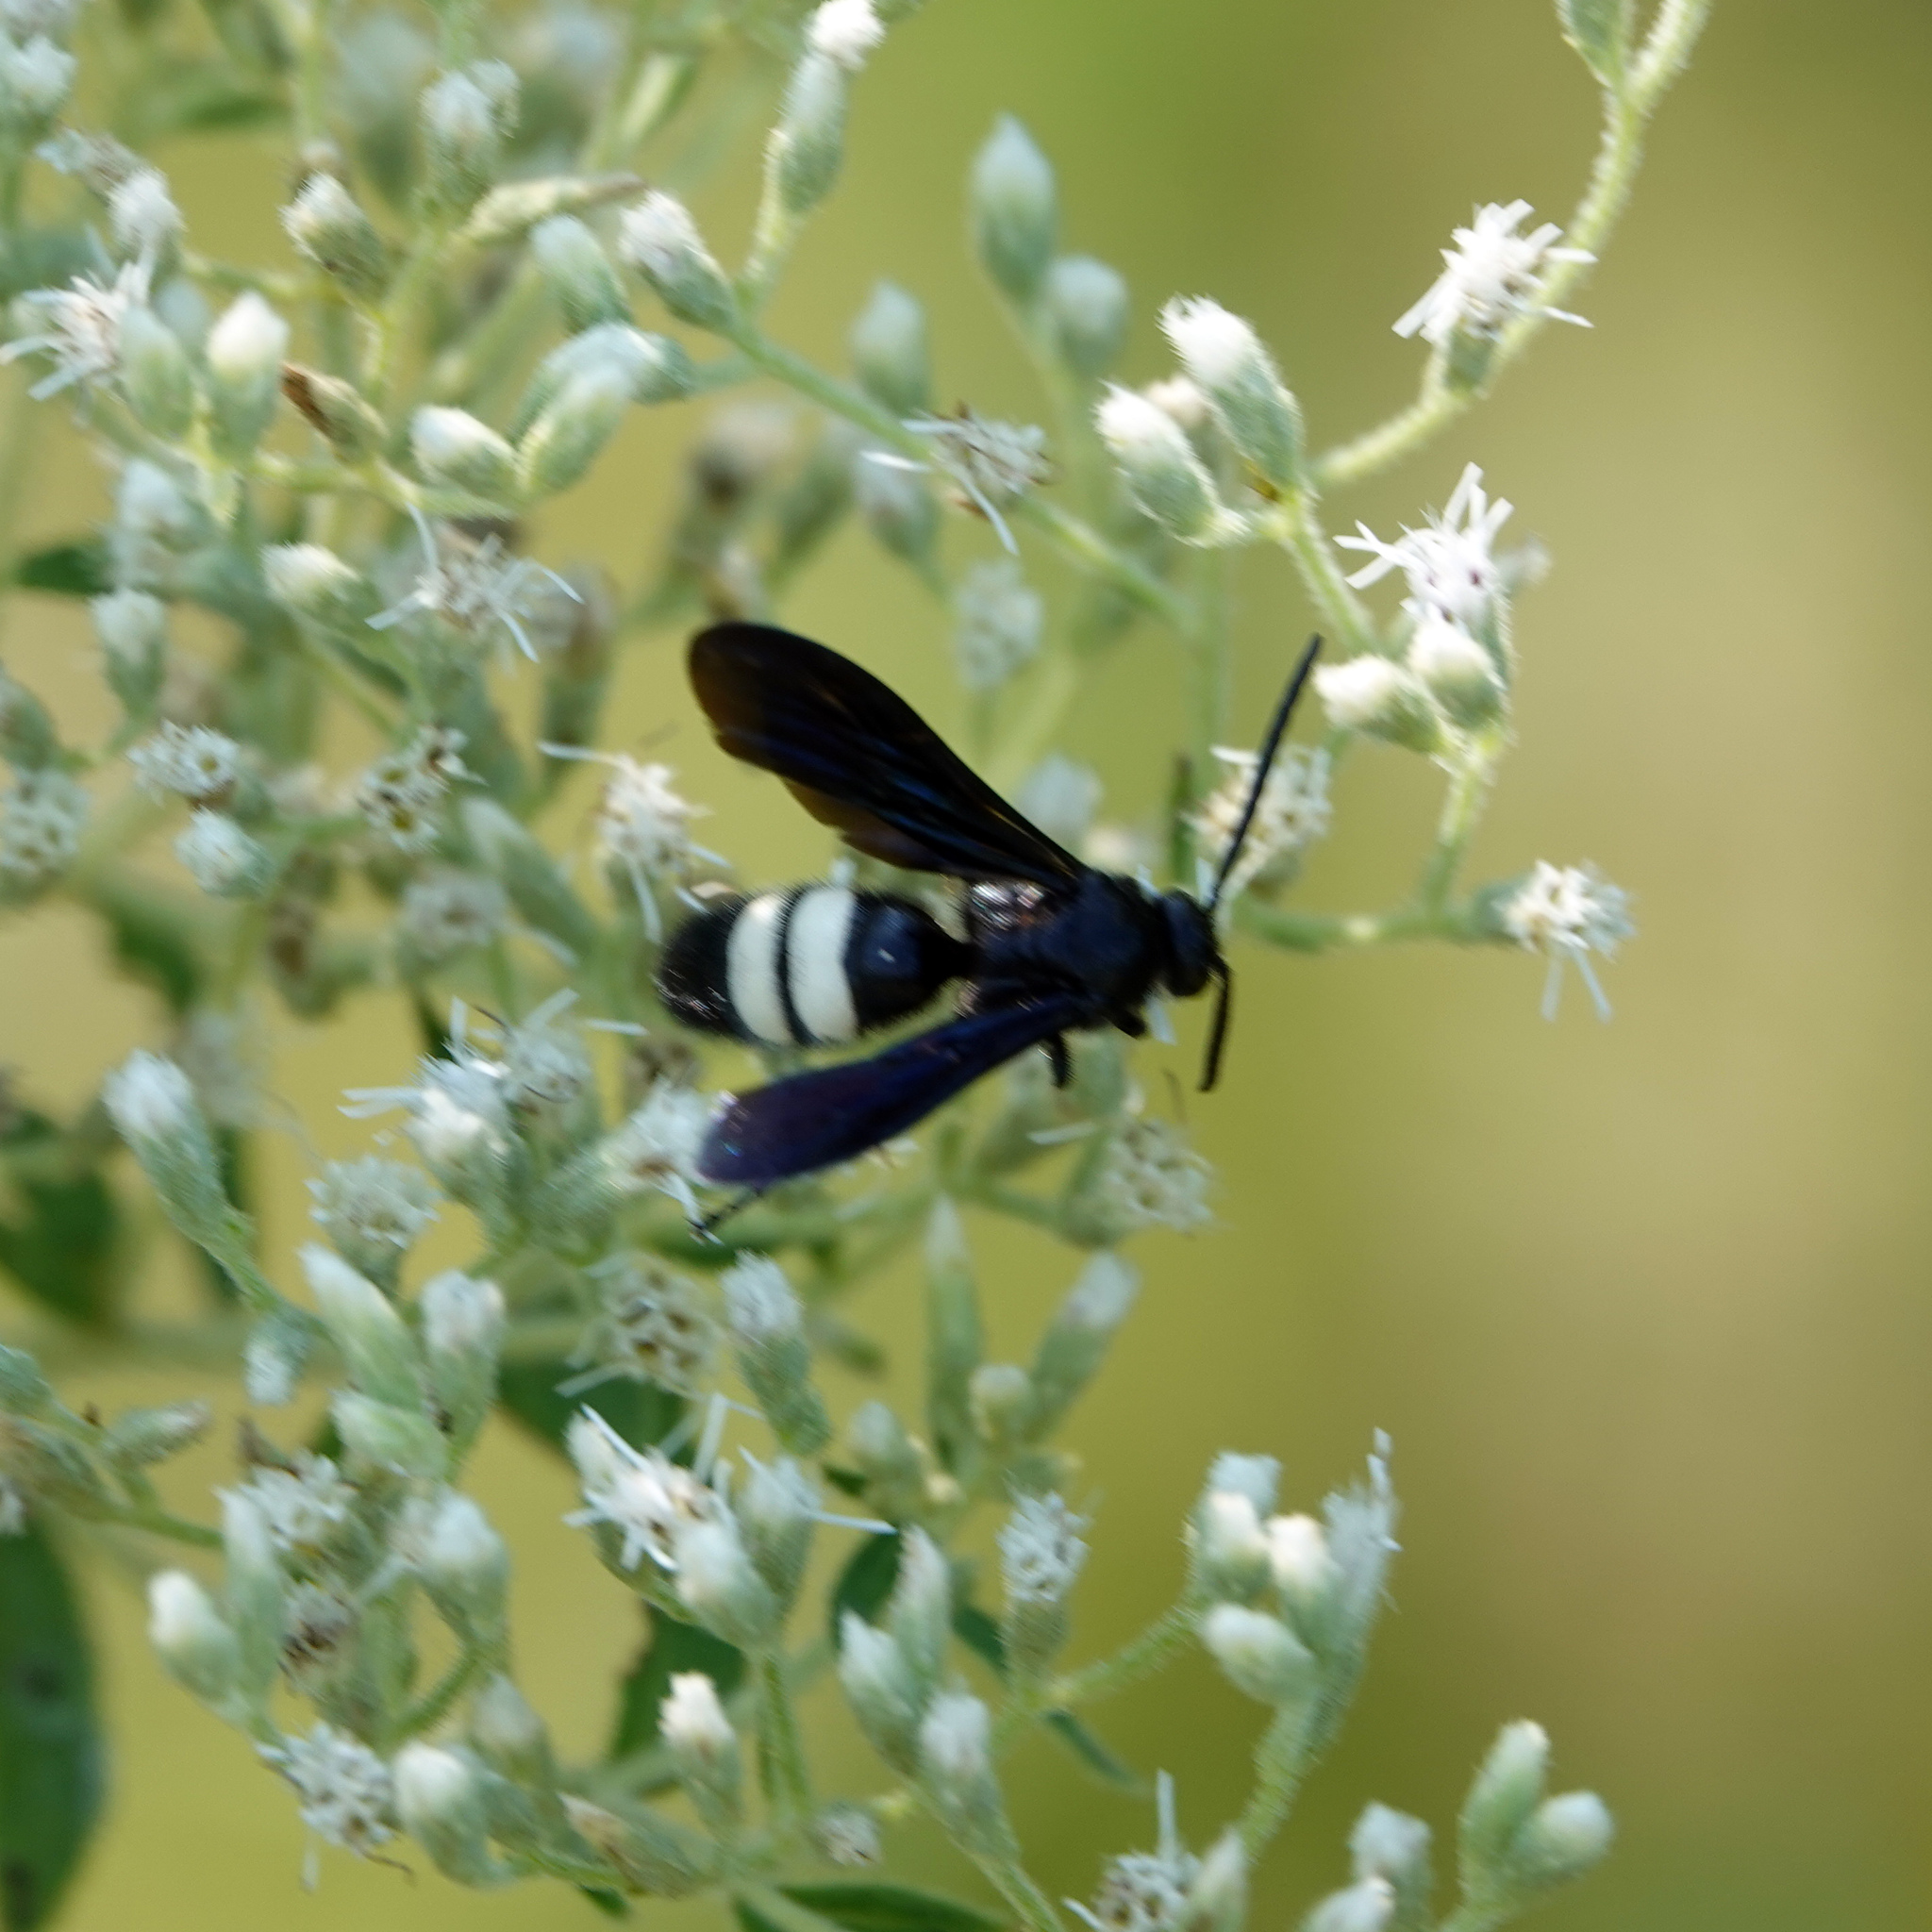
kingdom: Animalia
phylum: Arthropoda
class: Insecta
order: Hymenoptera
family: Scoliidae
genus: Scolia
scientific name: Scolia bicincta
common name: Double-banded scoliid wasp
